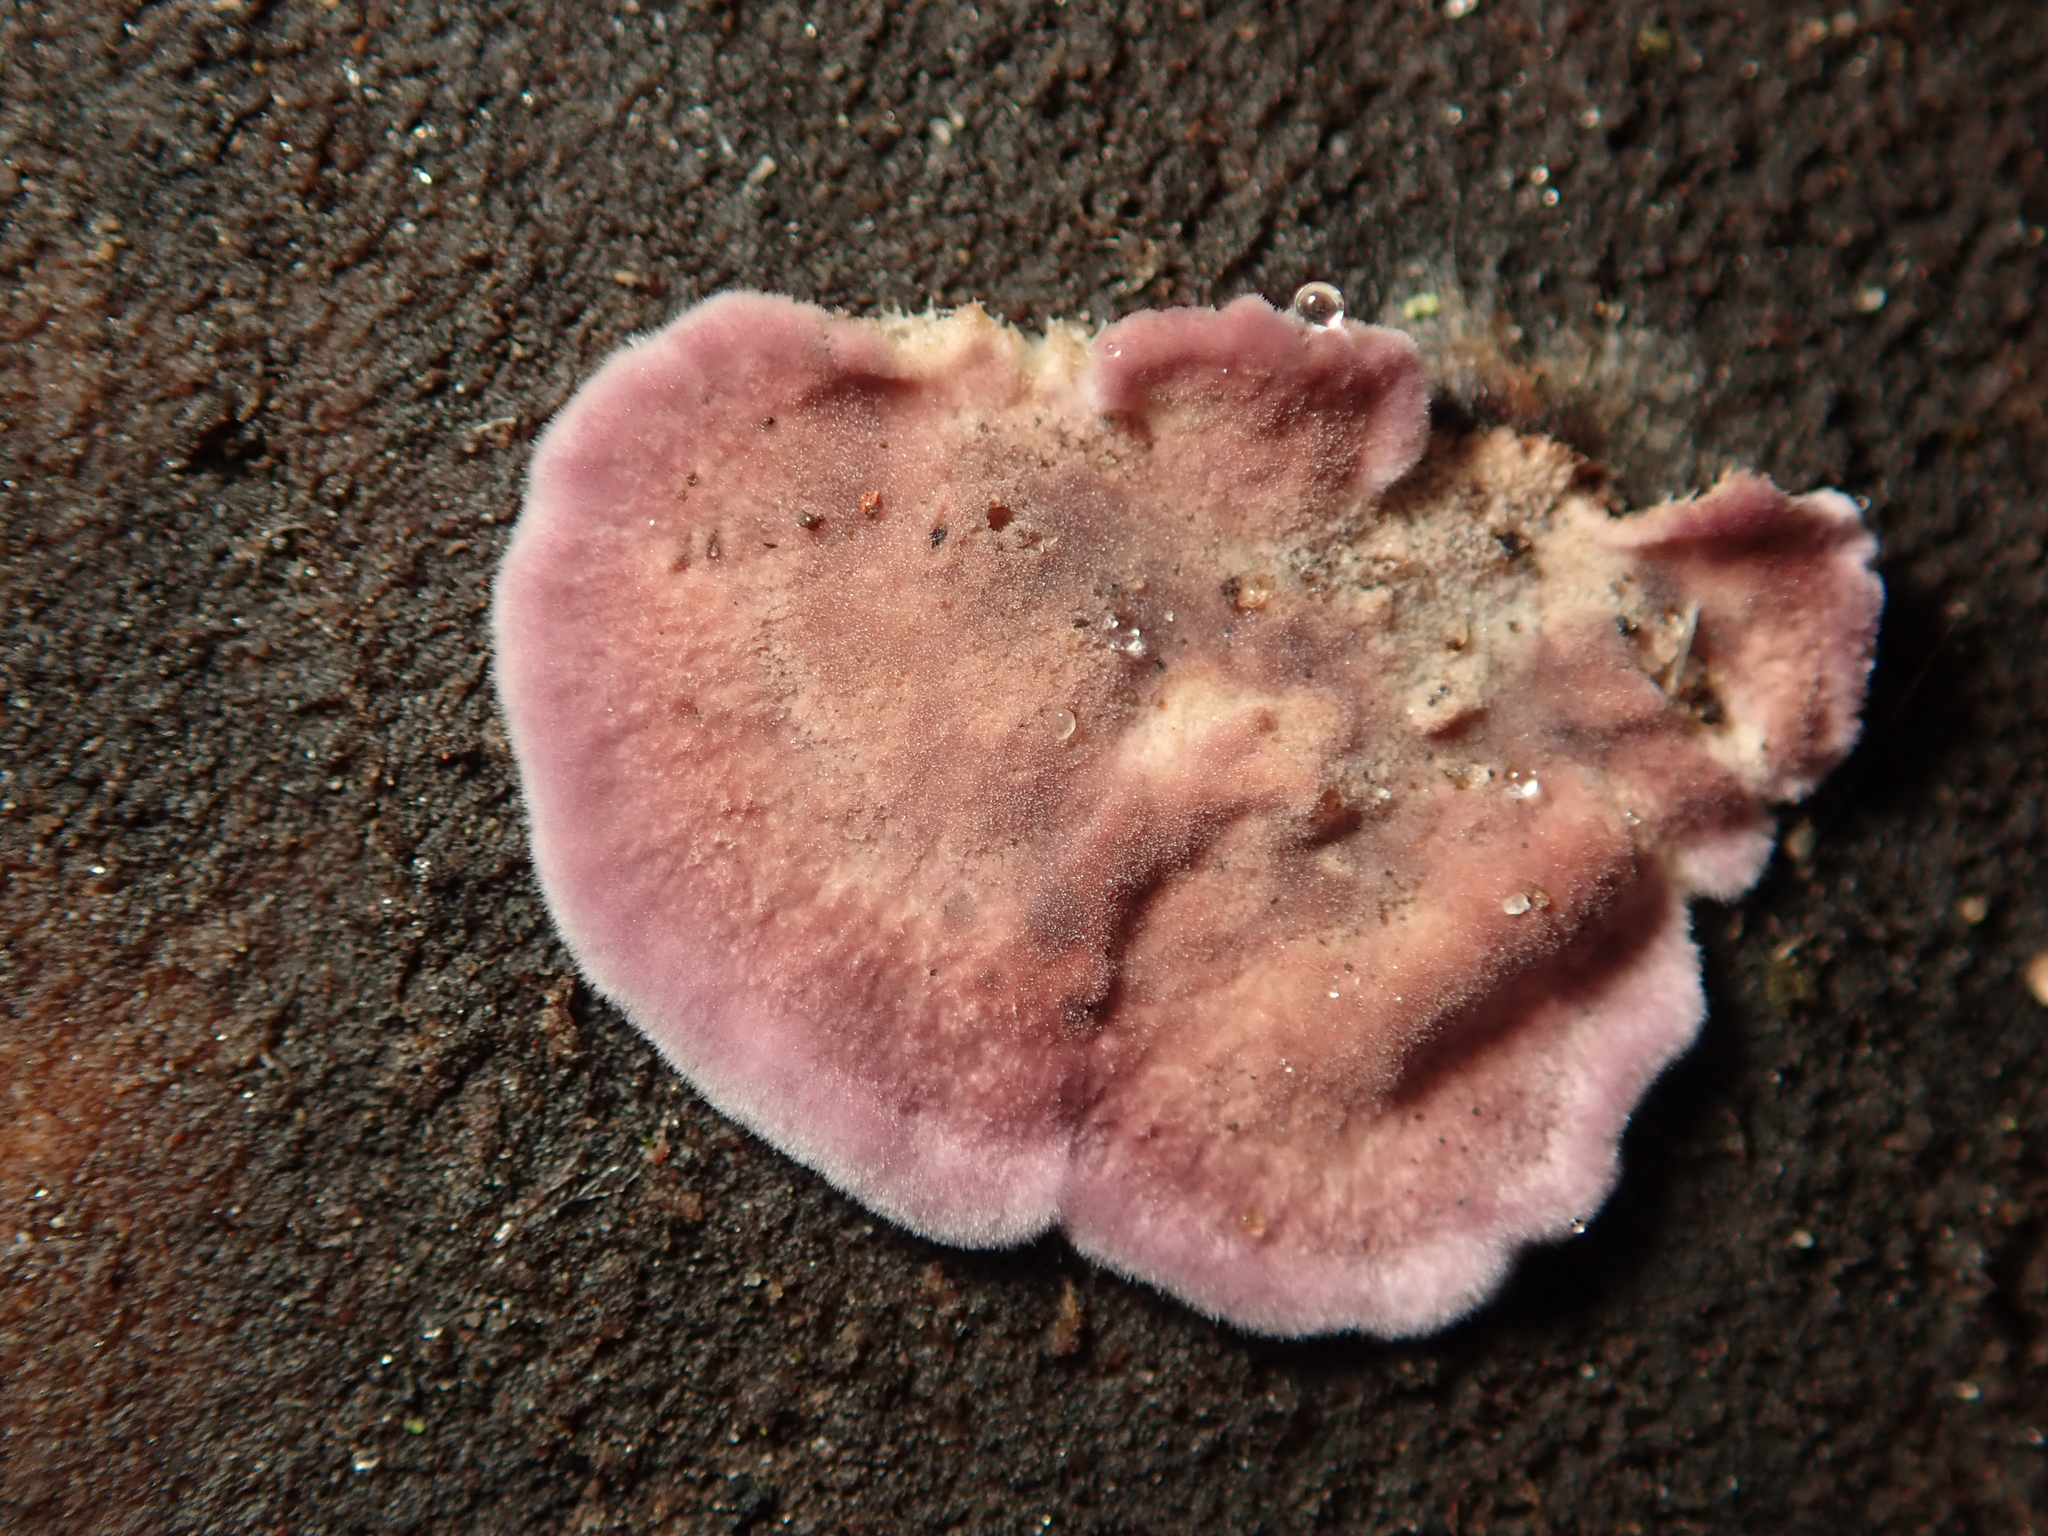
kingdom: Fungi
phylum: Basidiomycota
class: Agaricomycetes
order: Agaricales
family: Cyphellaceae
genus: Chondrostereum
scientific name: Chondrostereum purpureum
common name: Silver leaf disease
